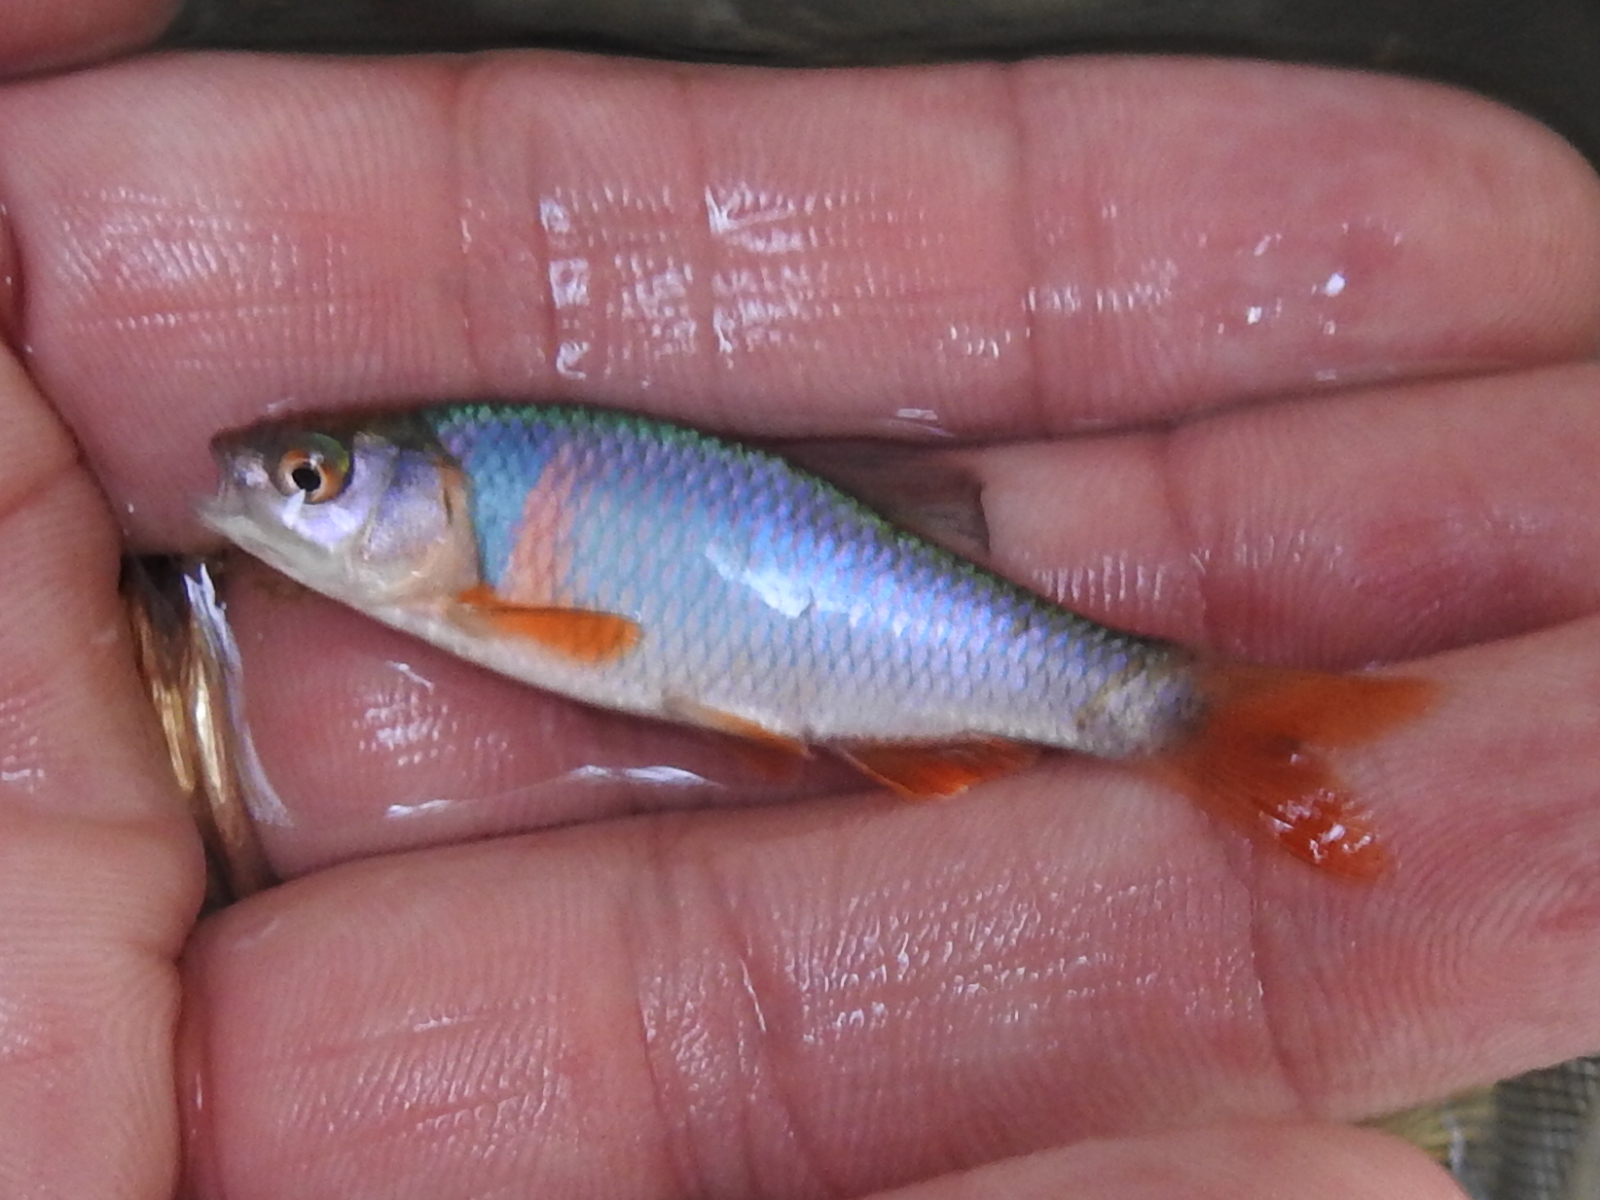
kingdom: Animalia
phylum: Chordata
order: Cypriniformes
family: Cyprinidae
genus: Cyprinella
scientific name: Cyprinella lutrensis
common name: Red shiner
